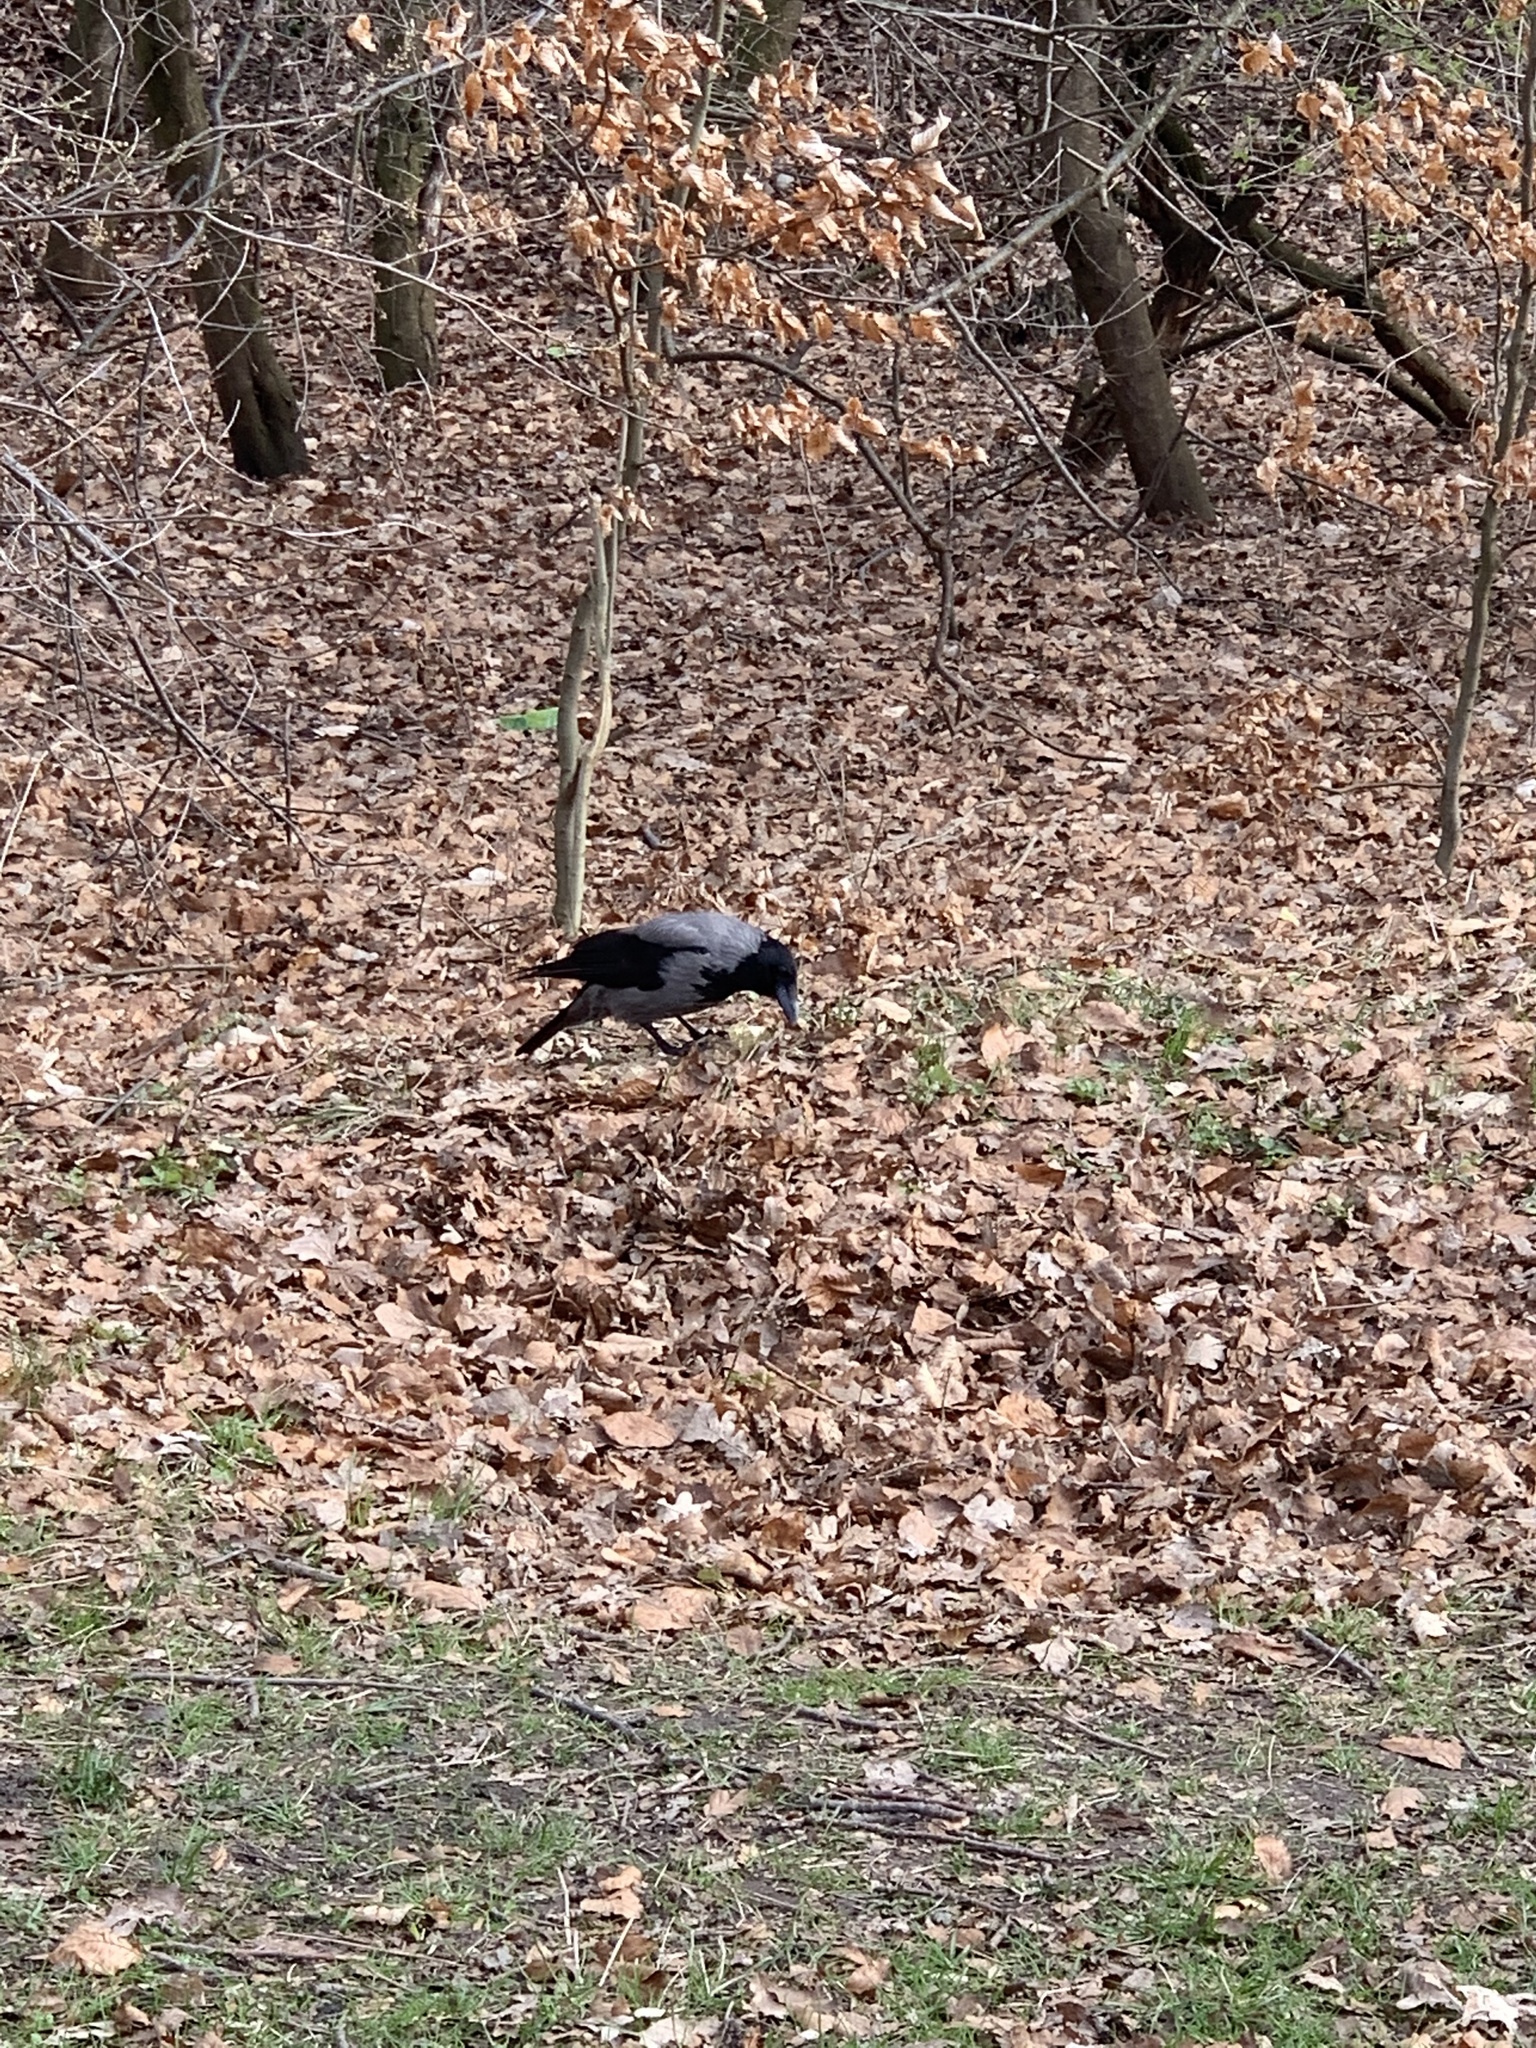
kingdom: Animalia
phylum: Chordata
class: Aves
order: Passeriformes
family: Corvidae
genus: Corvus
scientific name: Corvus cornix
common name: Hooded crow
